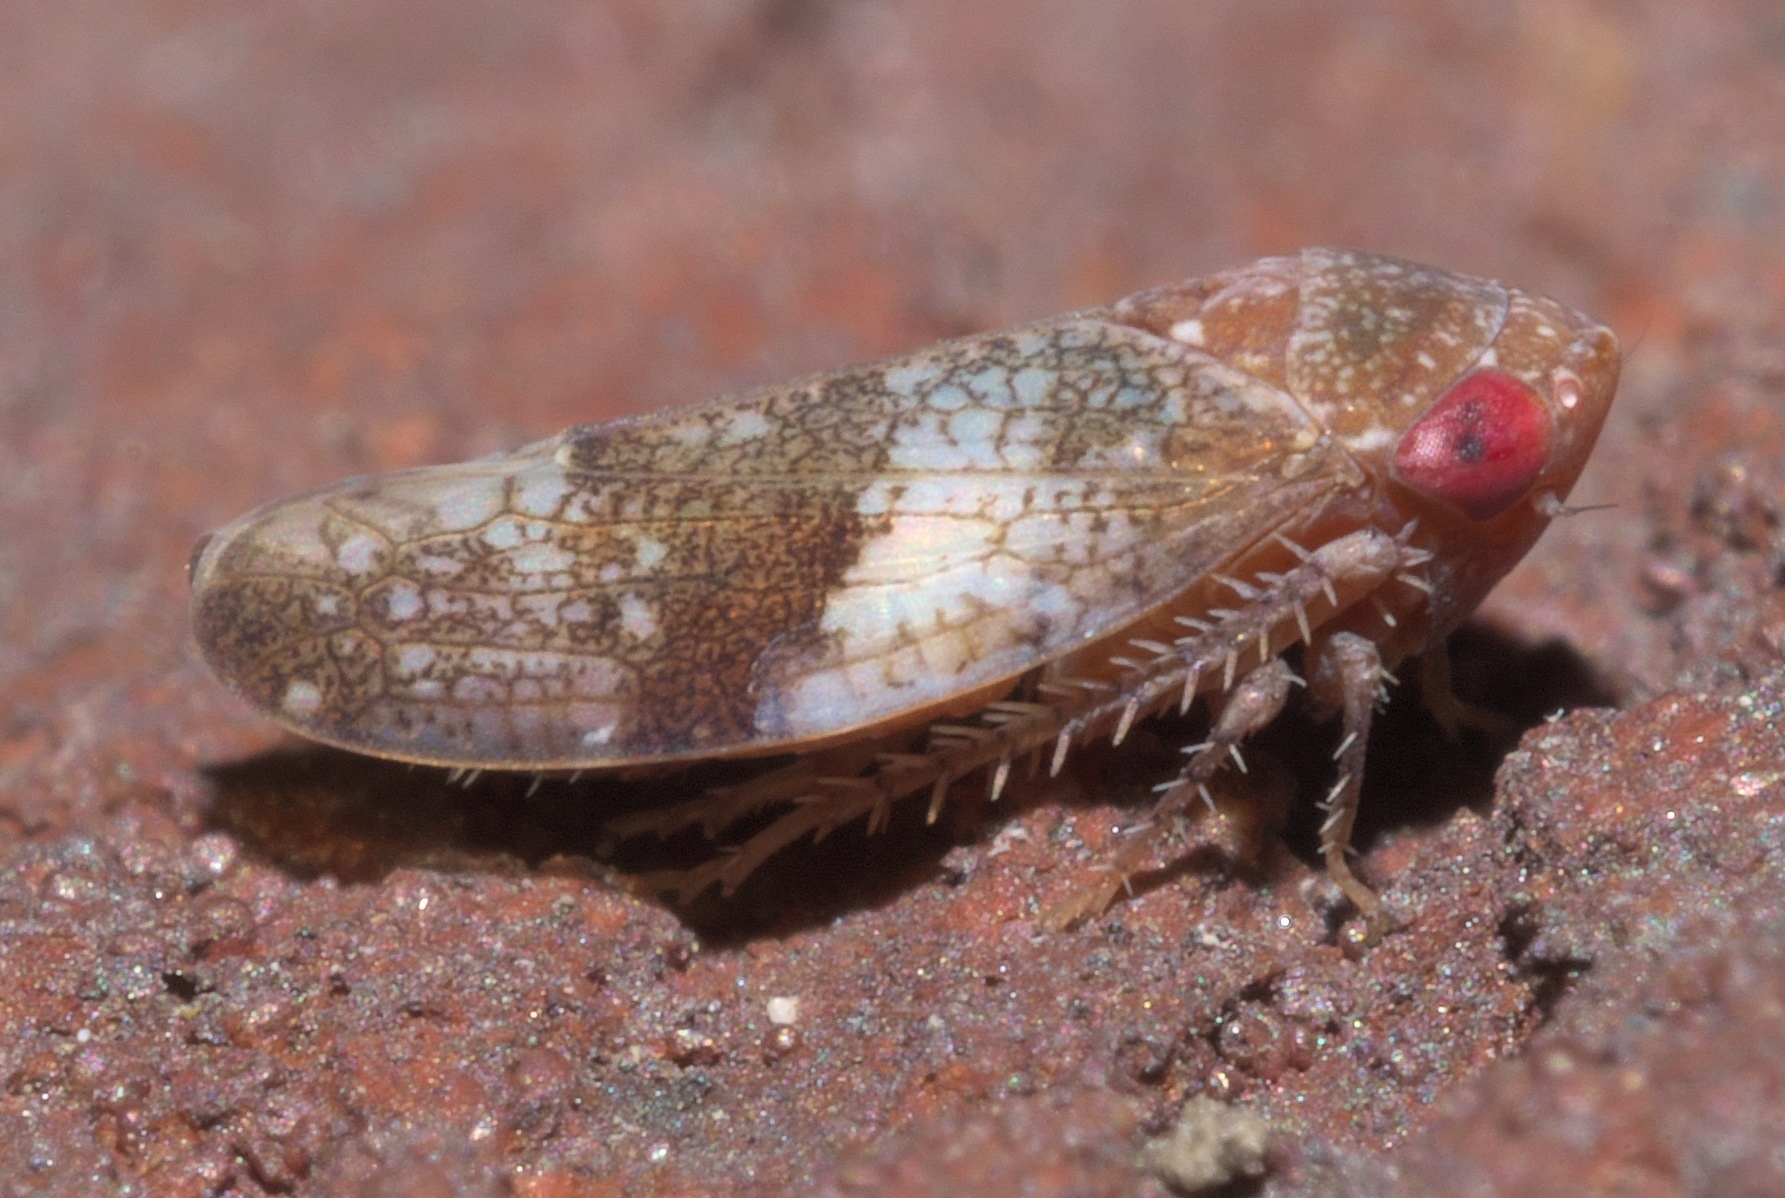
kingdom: Animalia
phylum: Arthropoda
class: Insecta
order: Hemiptera
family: Cicadellidae
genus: Norvellina
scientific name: Norvellina helenae
